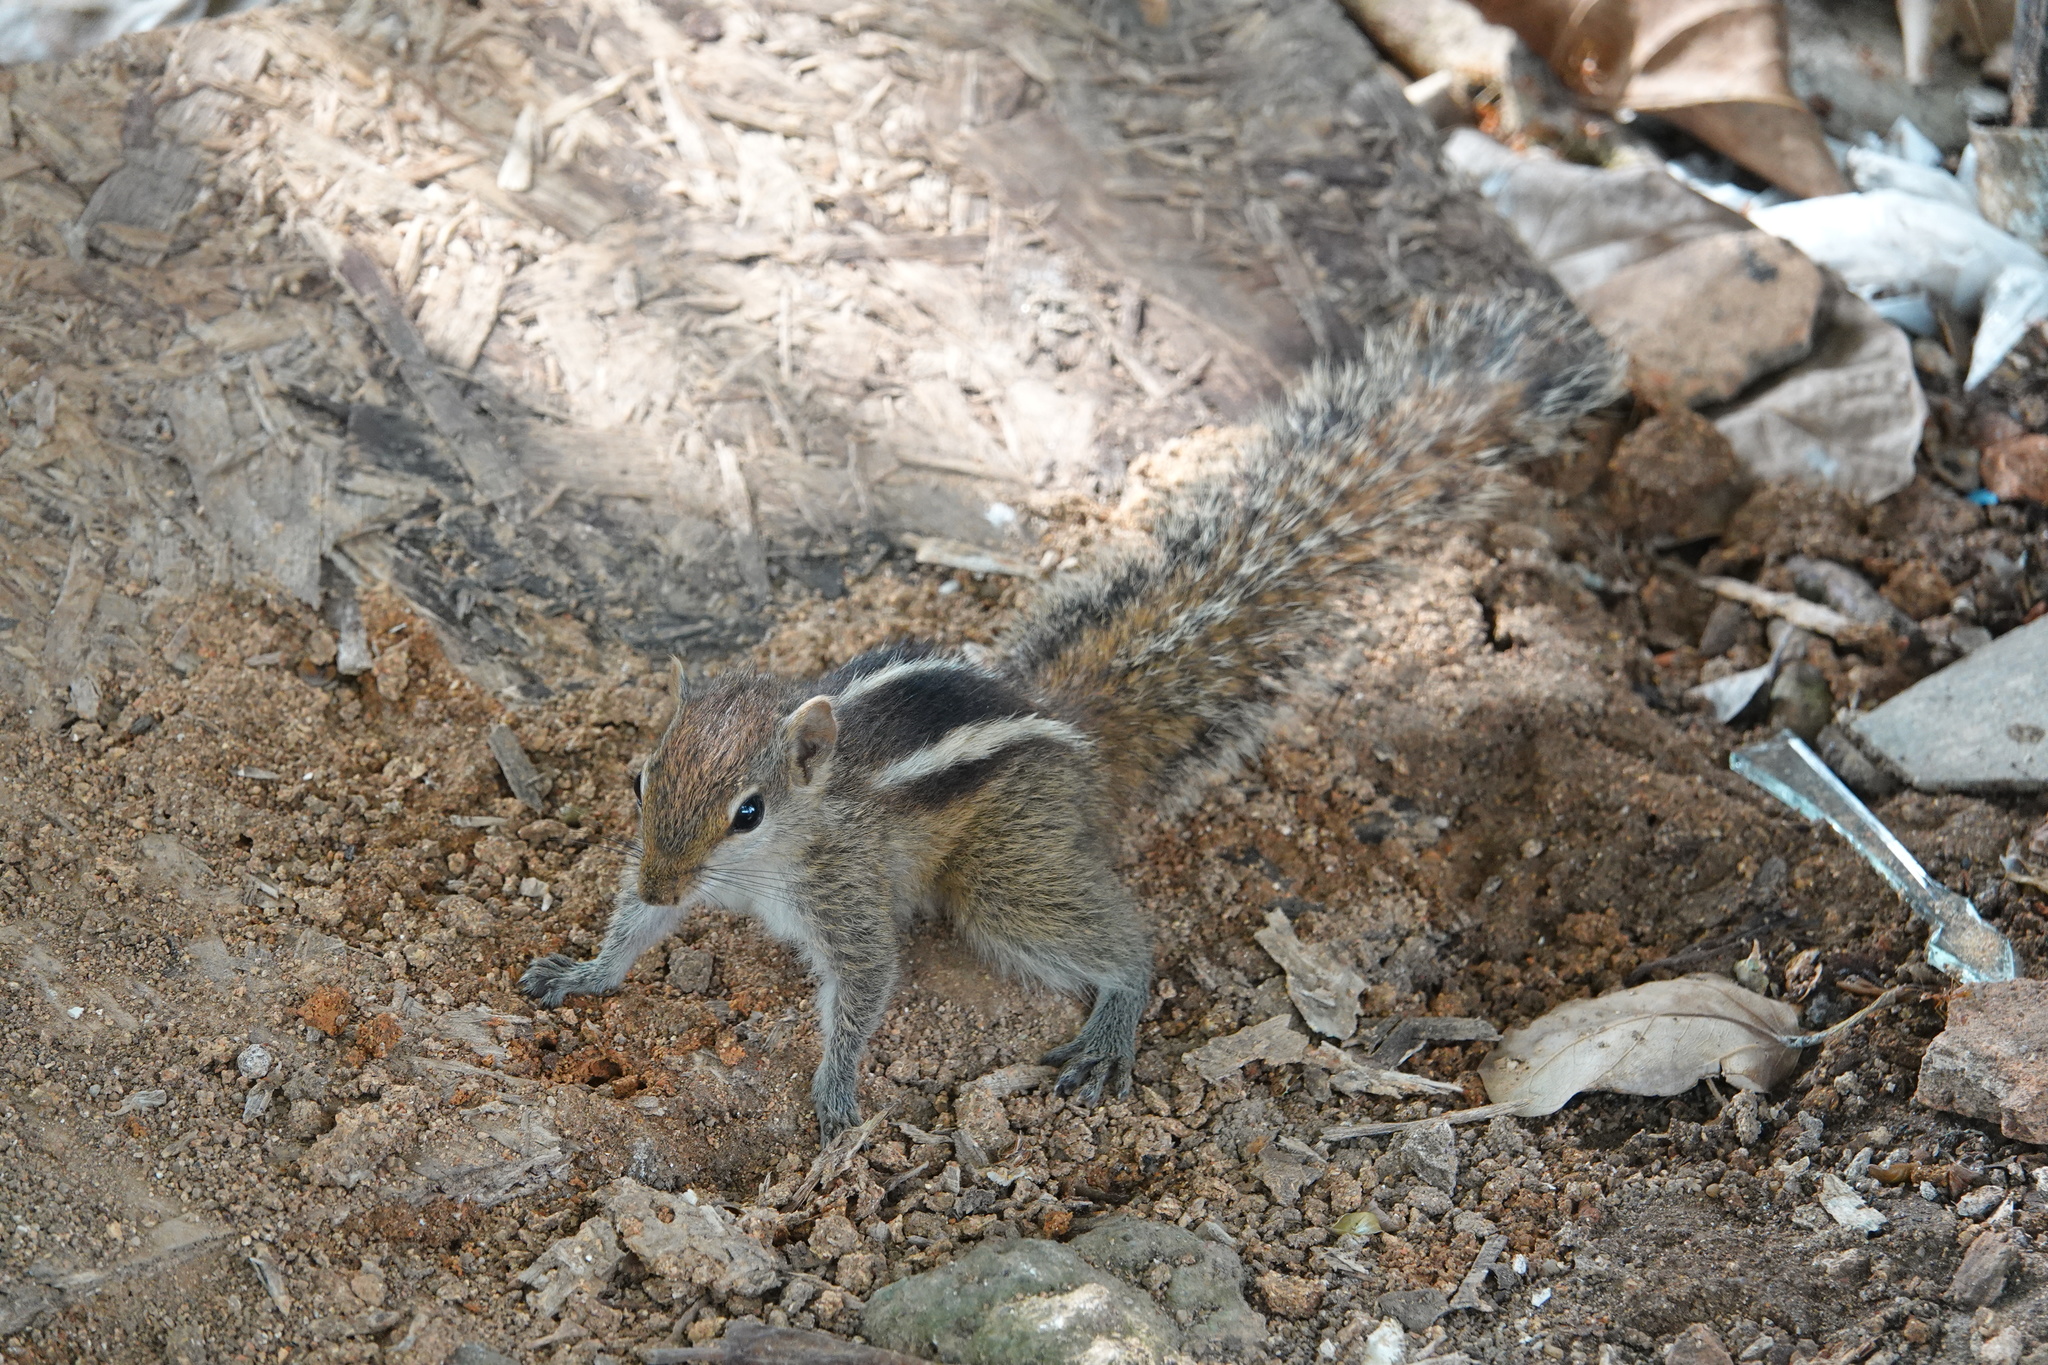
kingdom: Animalia
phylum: Chordata
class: Mammalia
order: Rodentia
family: Sciuridae
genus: Funambulus
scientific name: Funambulus palmarum
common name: Indian palm squirrel
